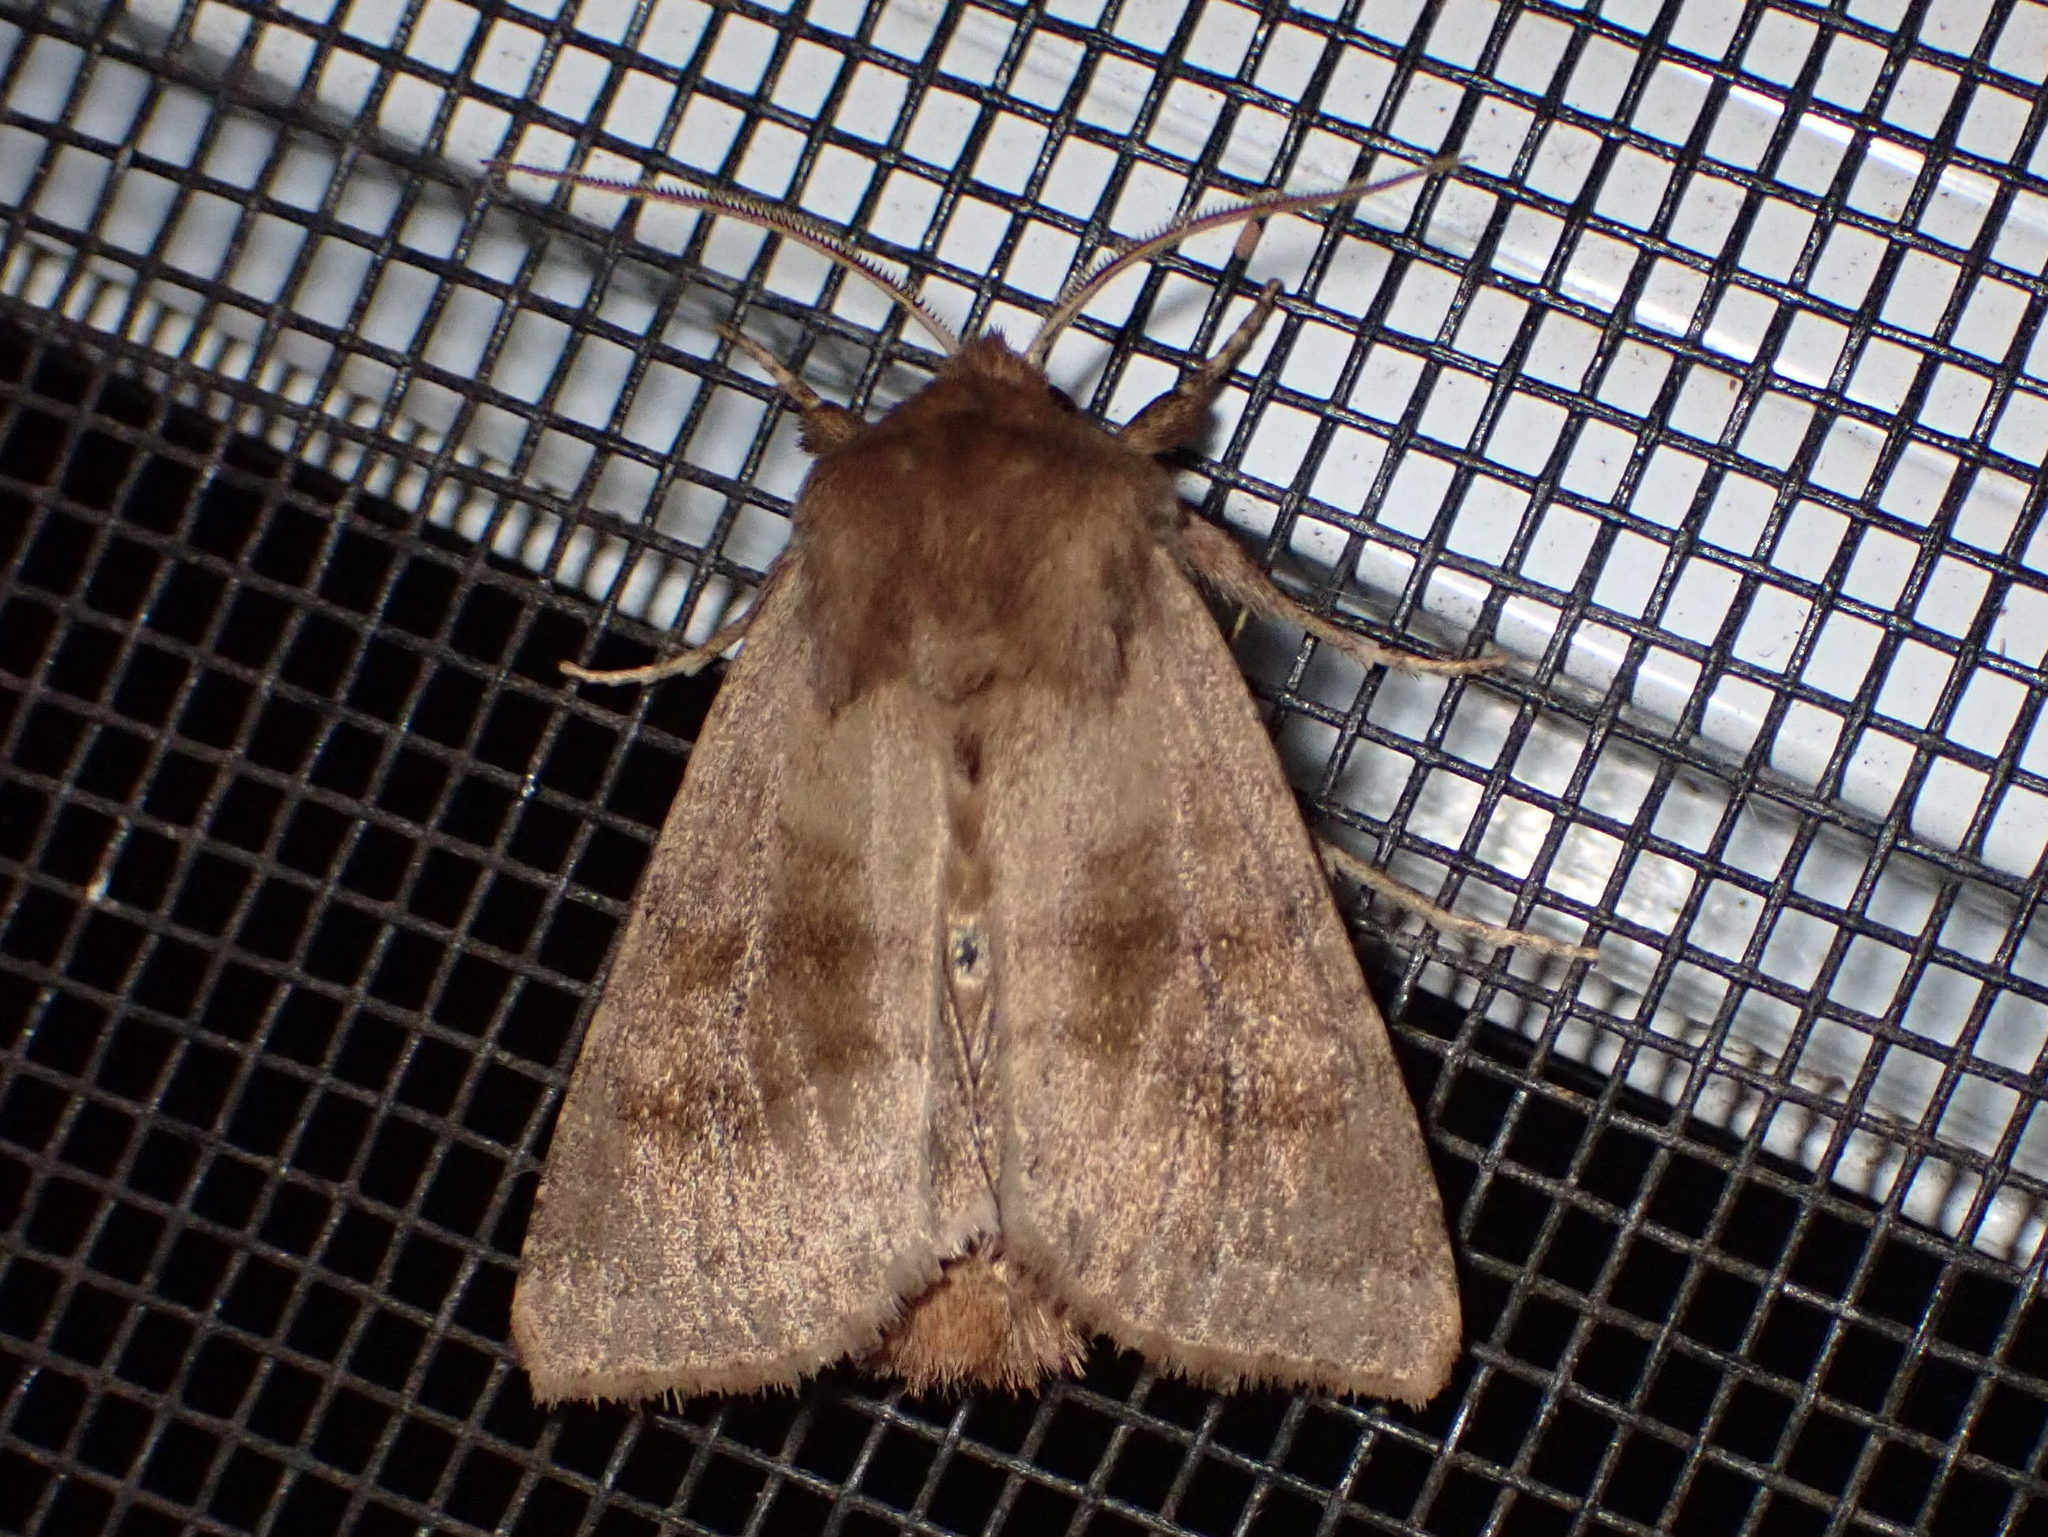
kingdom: Animalia
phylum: Arthropoda
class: Insecta
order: Lepidoptera
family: Noctuidae
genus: Nephelodes
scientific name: Nephelodes minians
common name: Bronzed cutworm
